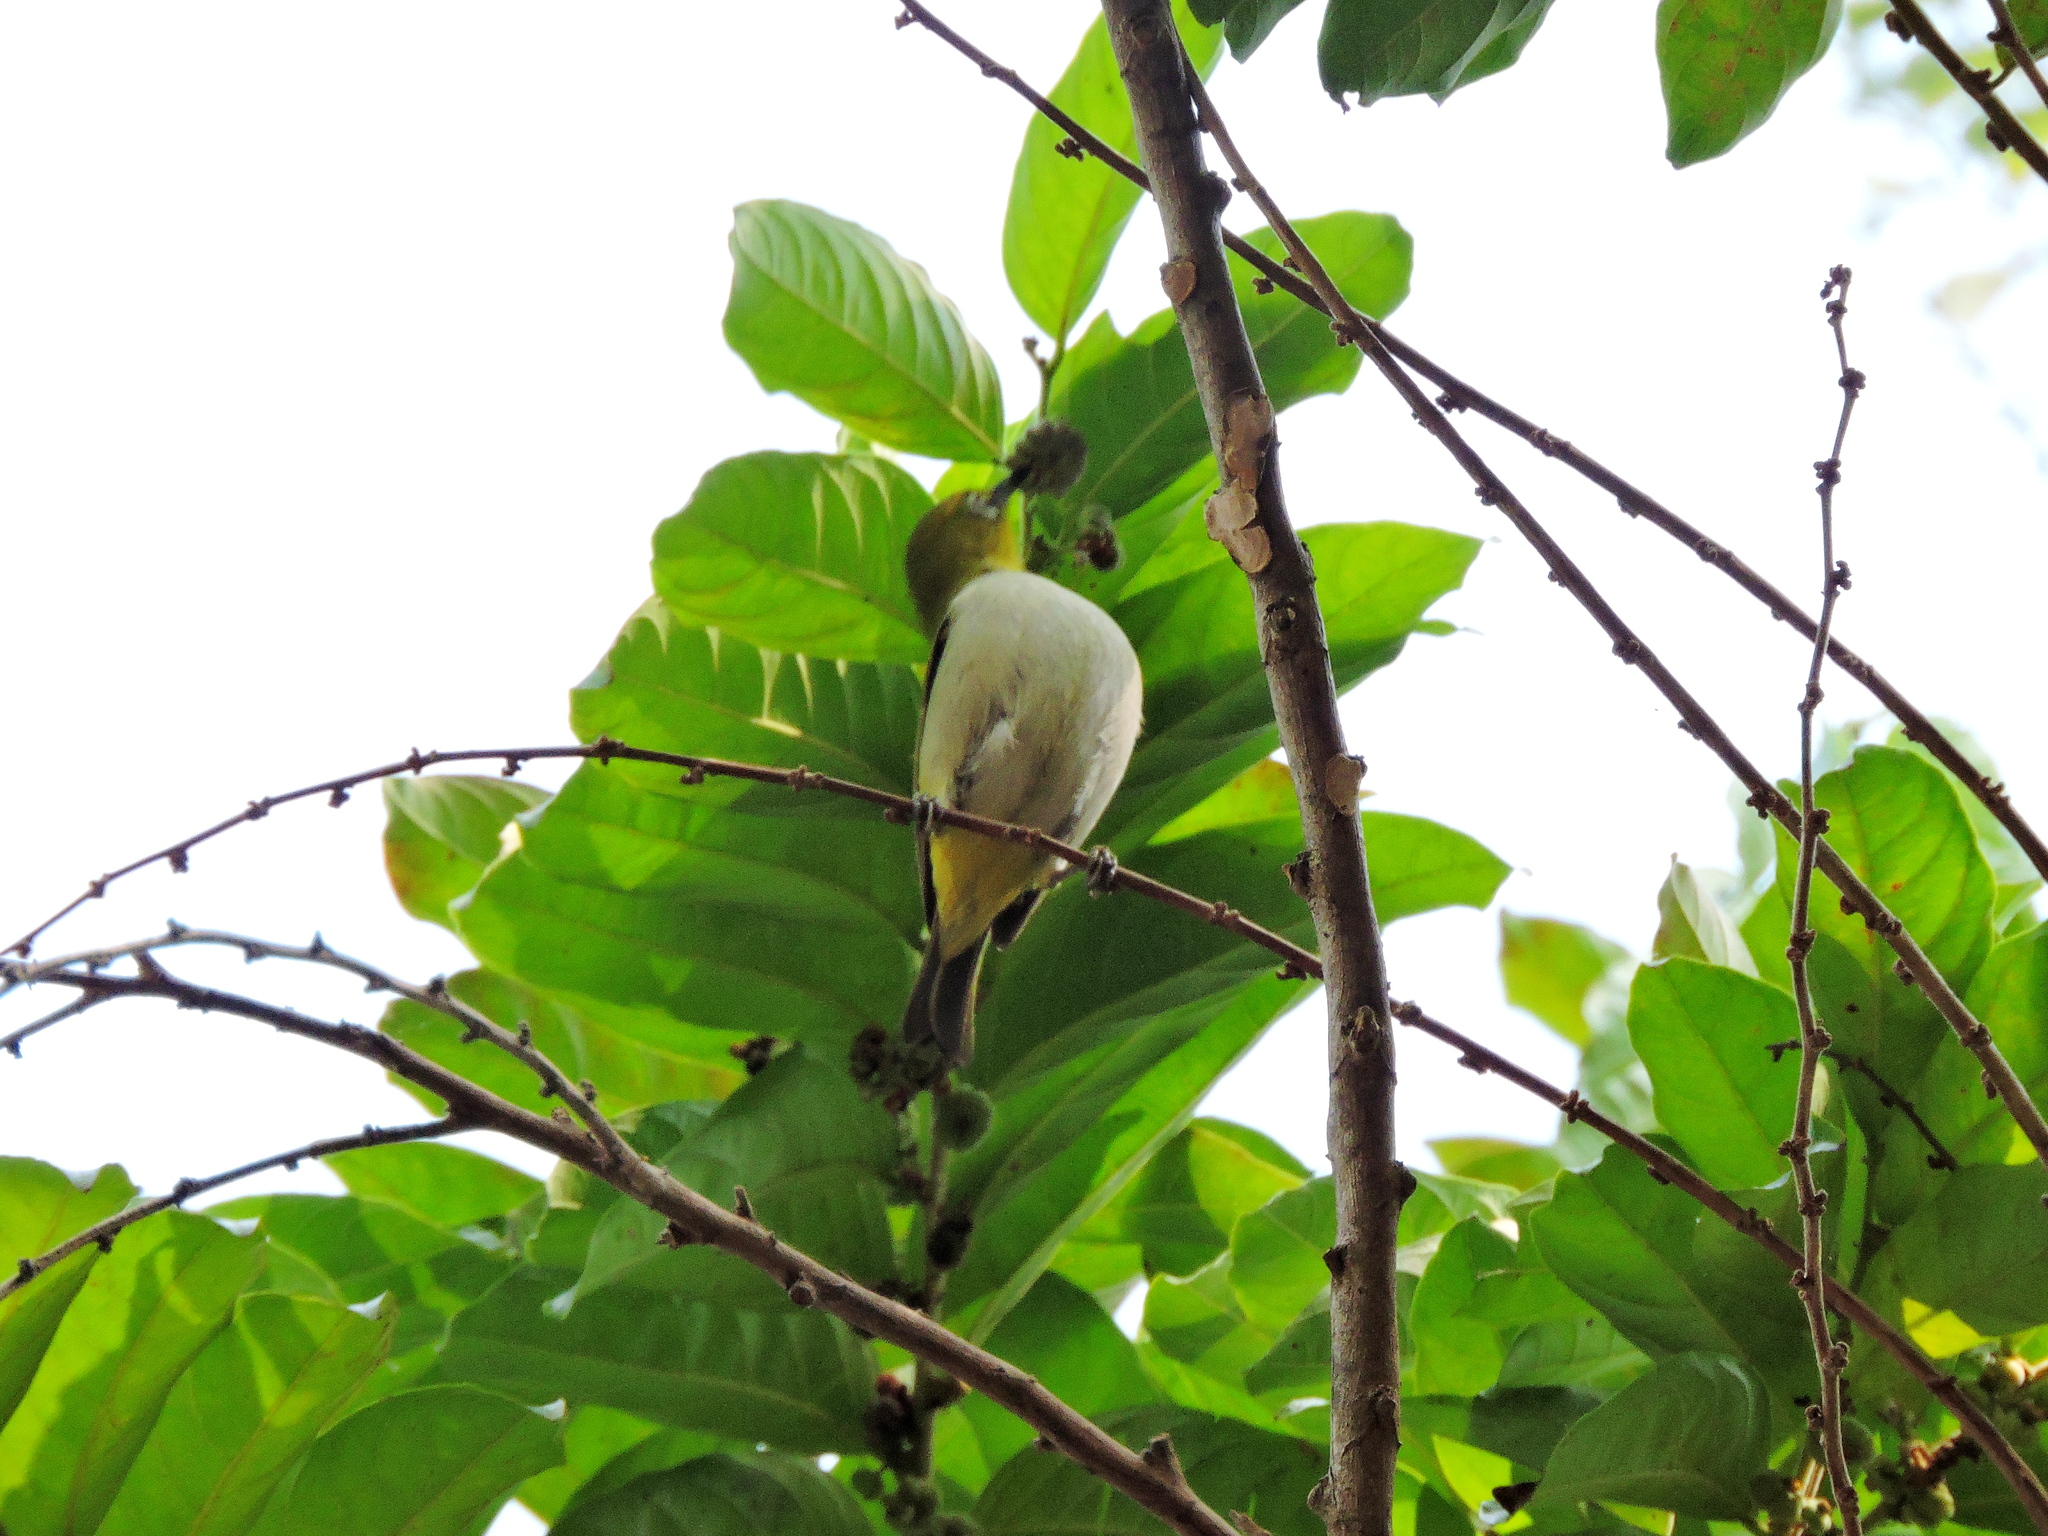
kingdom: Animalia
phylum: Chordata
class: Aves
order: Passeriformes
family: Zosteropidae
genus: Zosterops
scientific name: Zosterops simplex
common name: Swinhoe's white-eye
